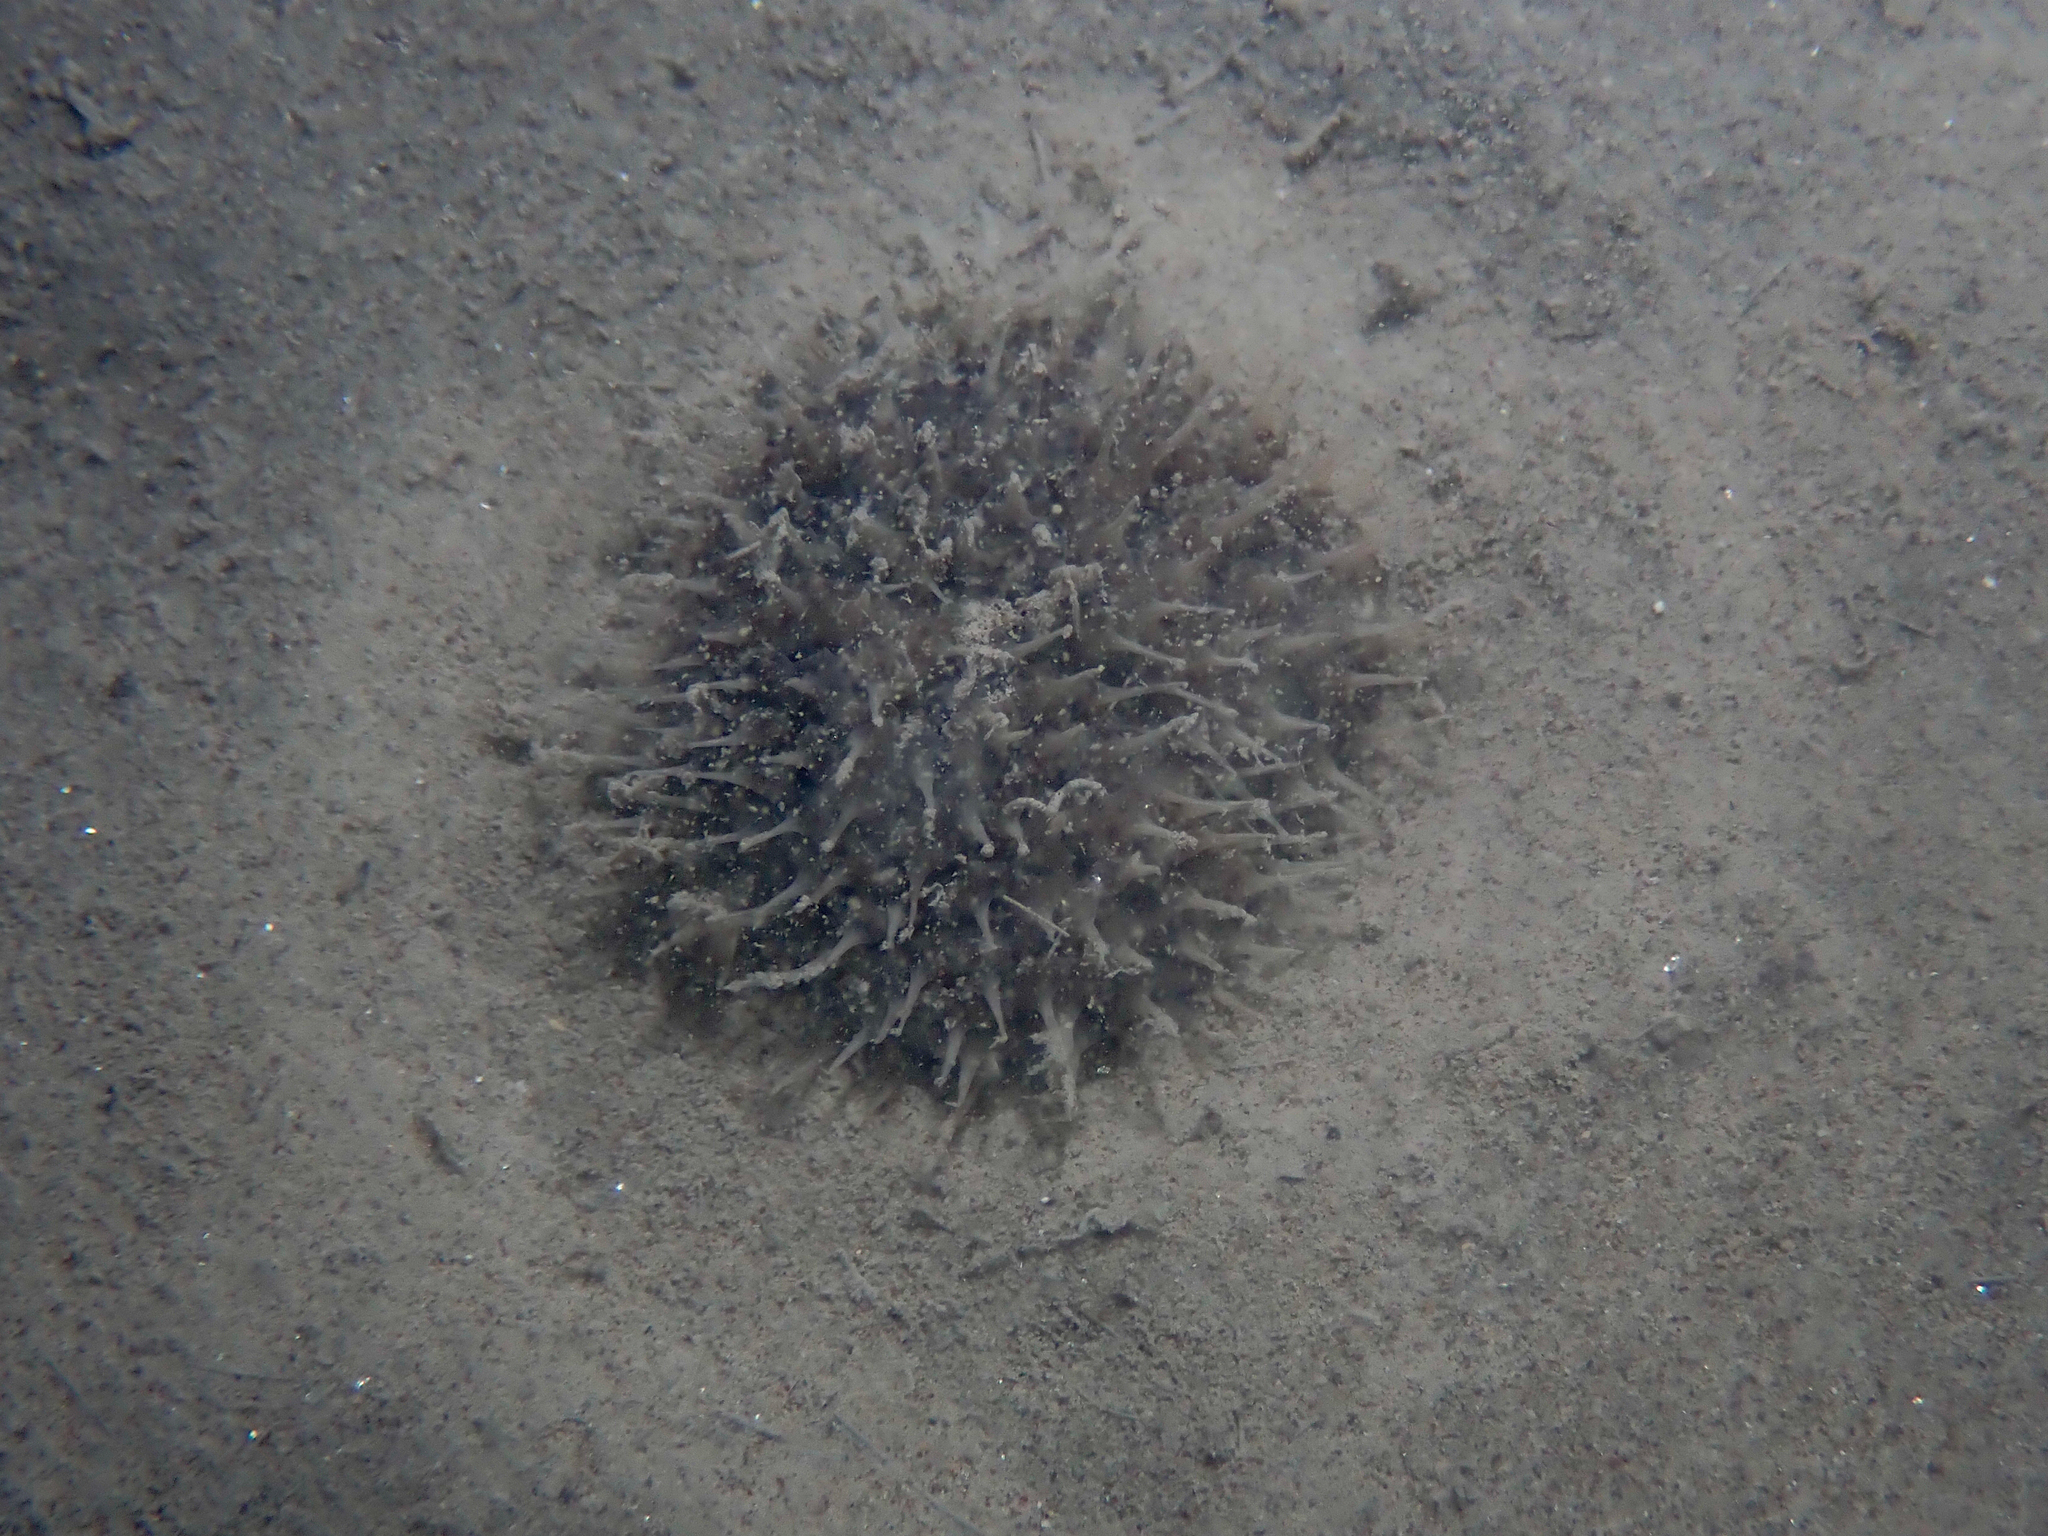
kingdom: Animalia
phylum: Cnidaria
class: Anthozoa
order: Scleralcyonacea
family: Pennatulidae
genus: Pteroeides
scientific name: Pteroeides griseum
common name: Gray sea-pen
